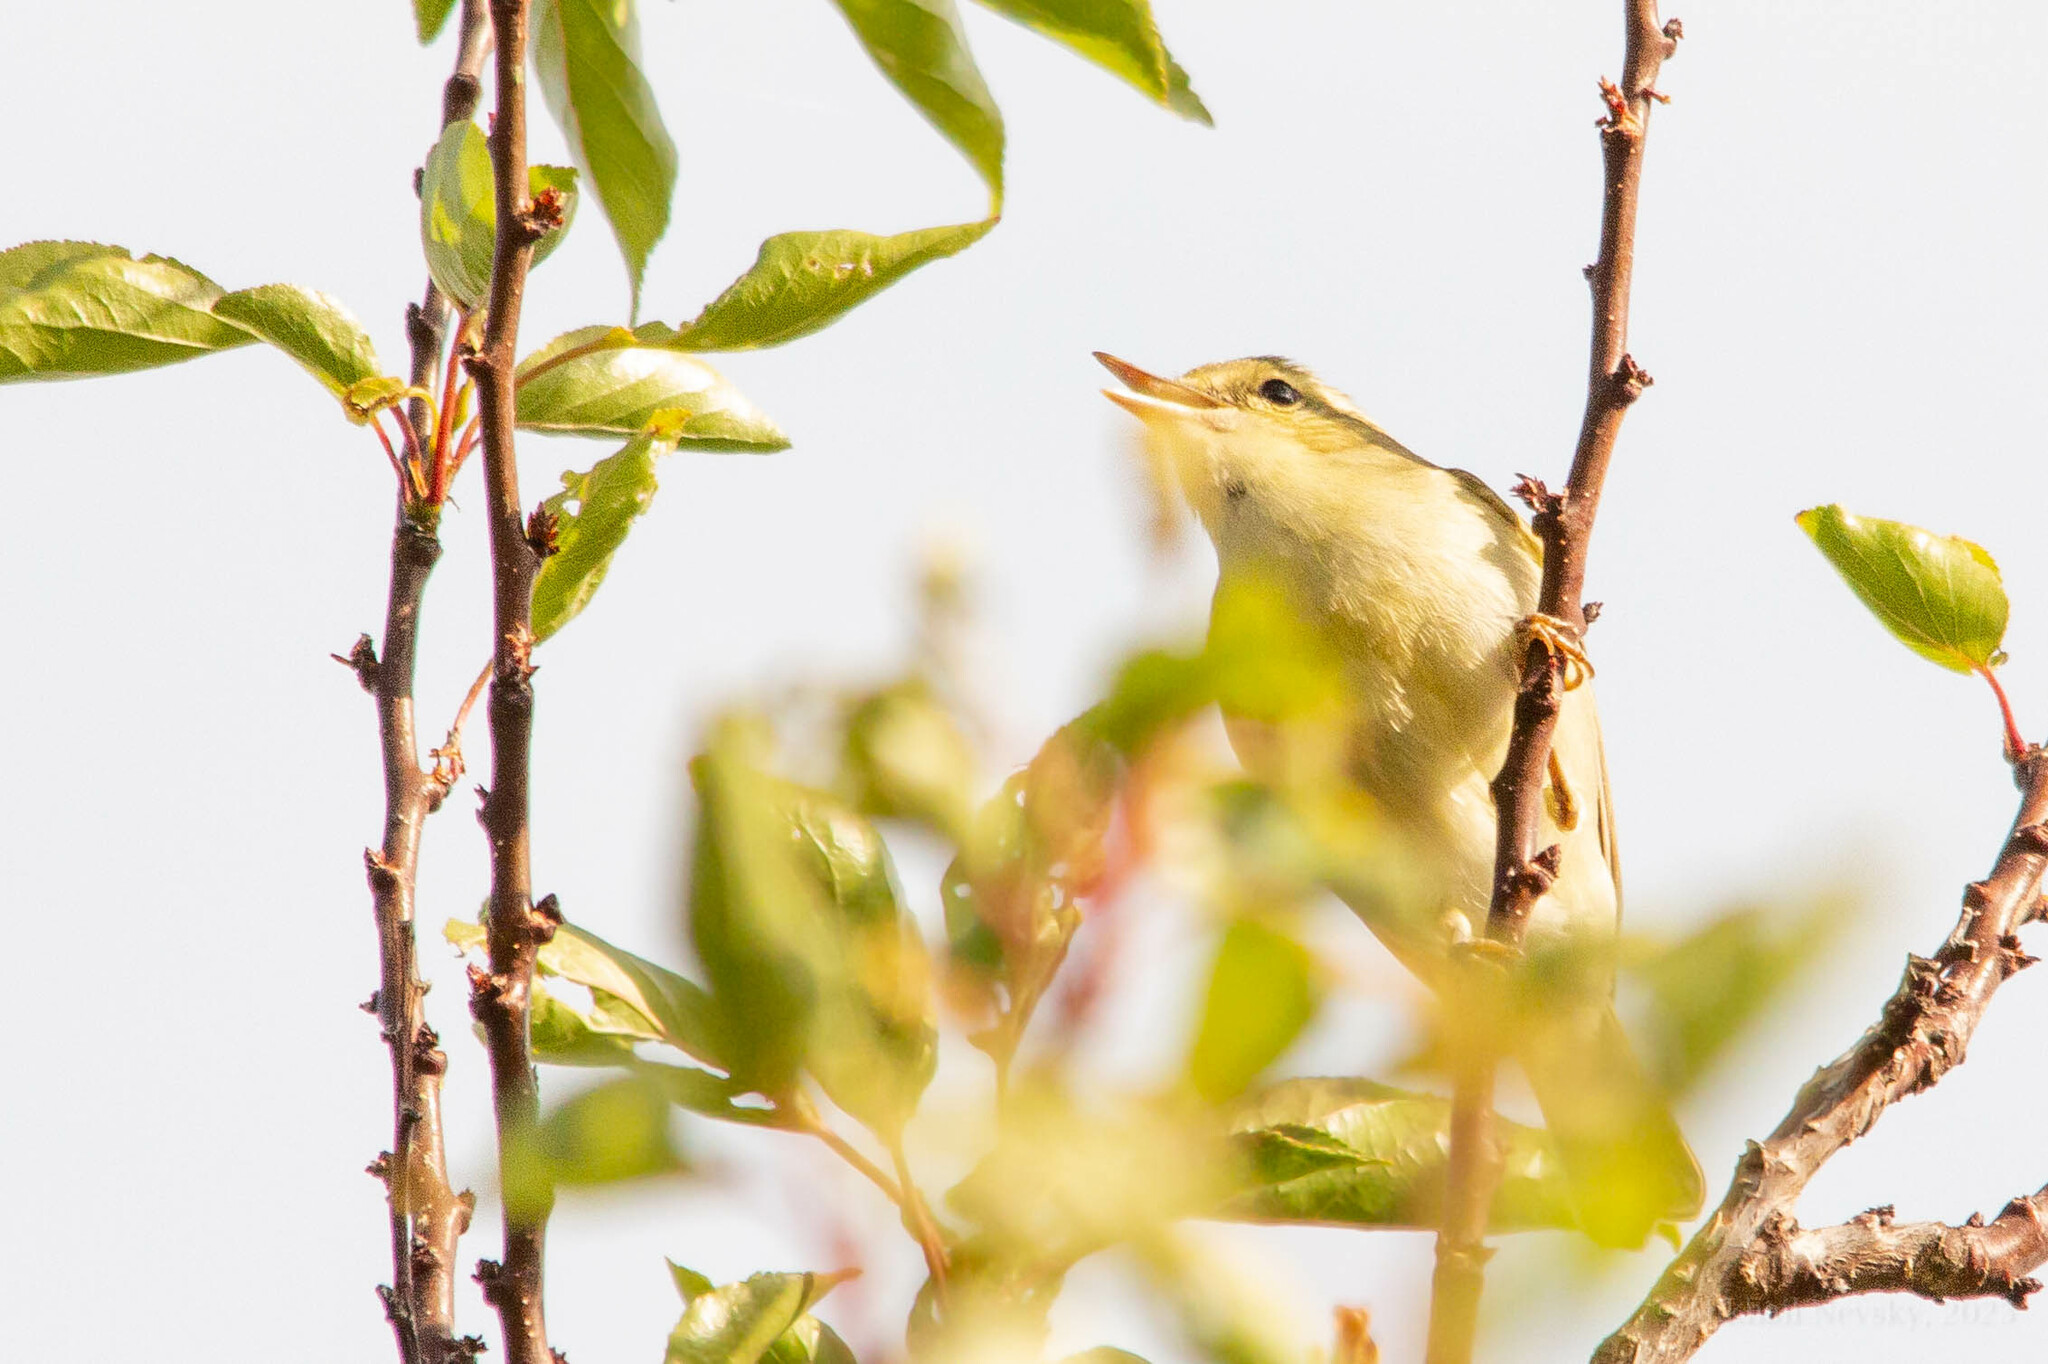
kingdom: Animalia
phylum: Chordata
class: Aves
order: Passeriformes
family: Phylloscopidae
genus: Phylloscopus
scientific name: Phylloscopus nitidus
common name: Green warbler
